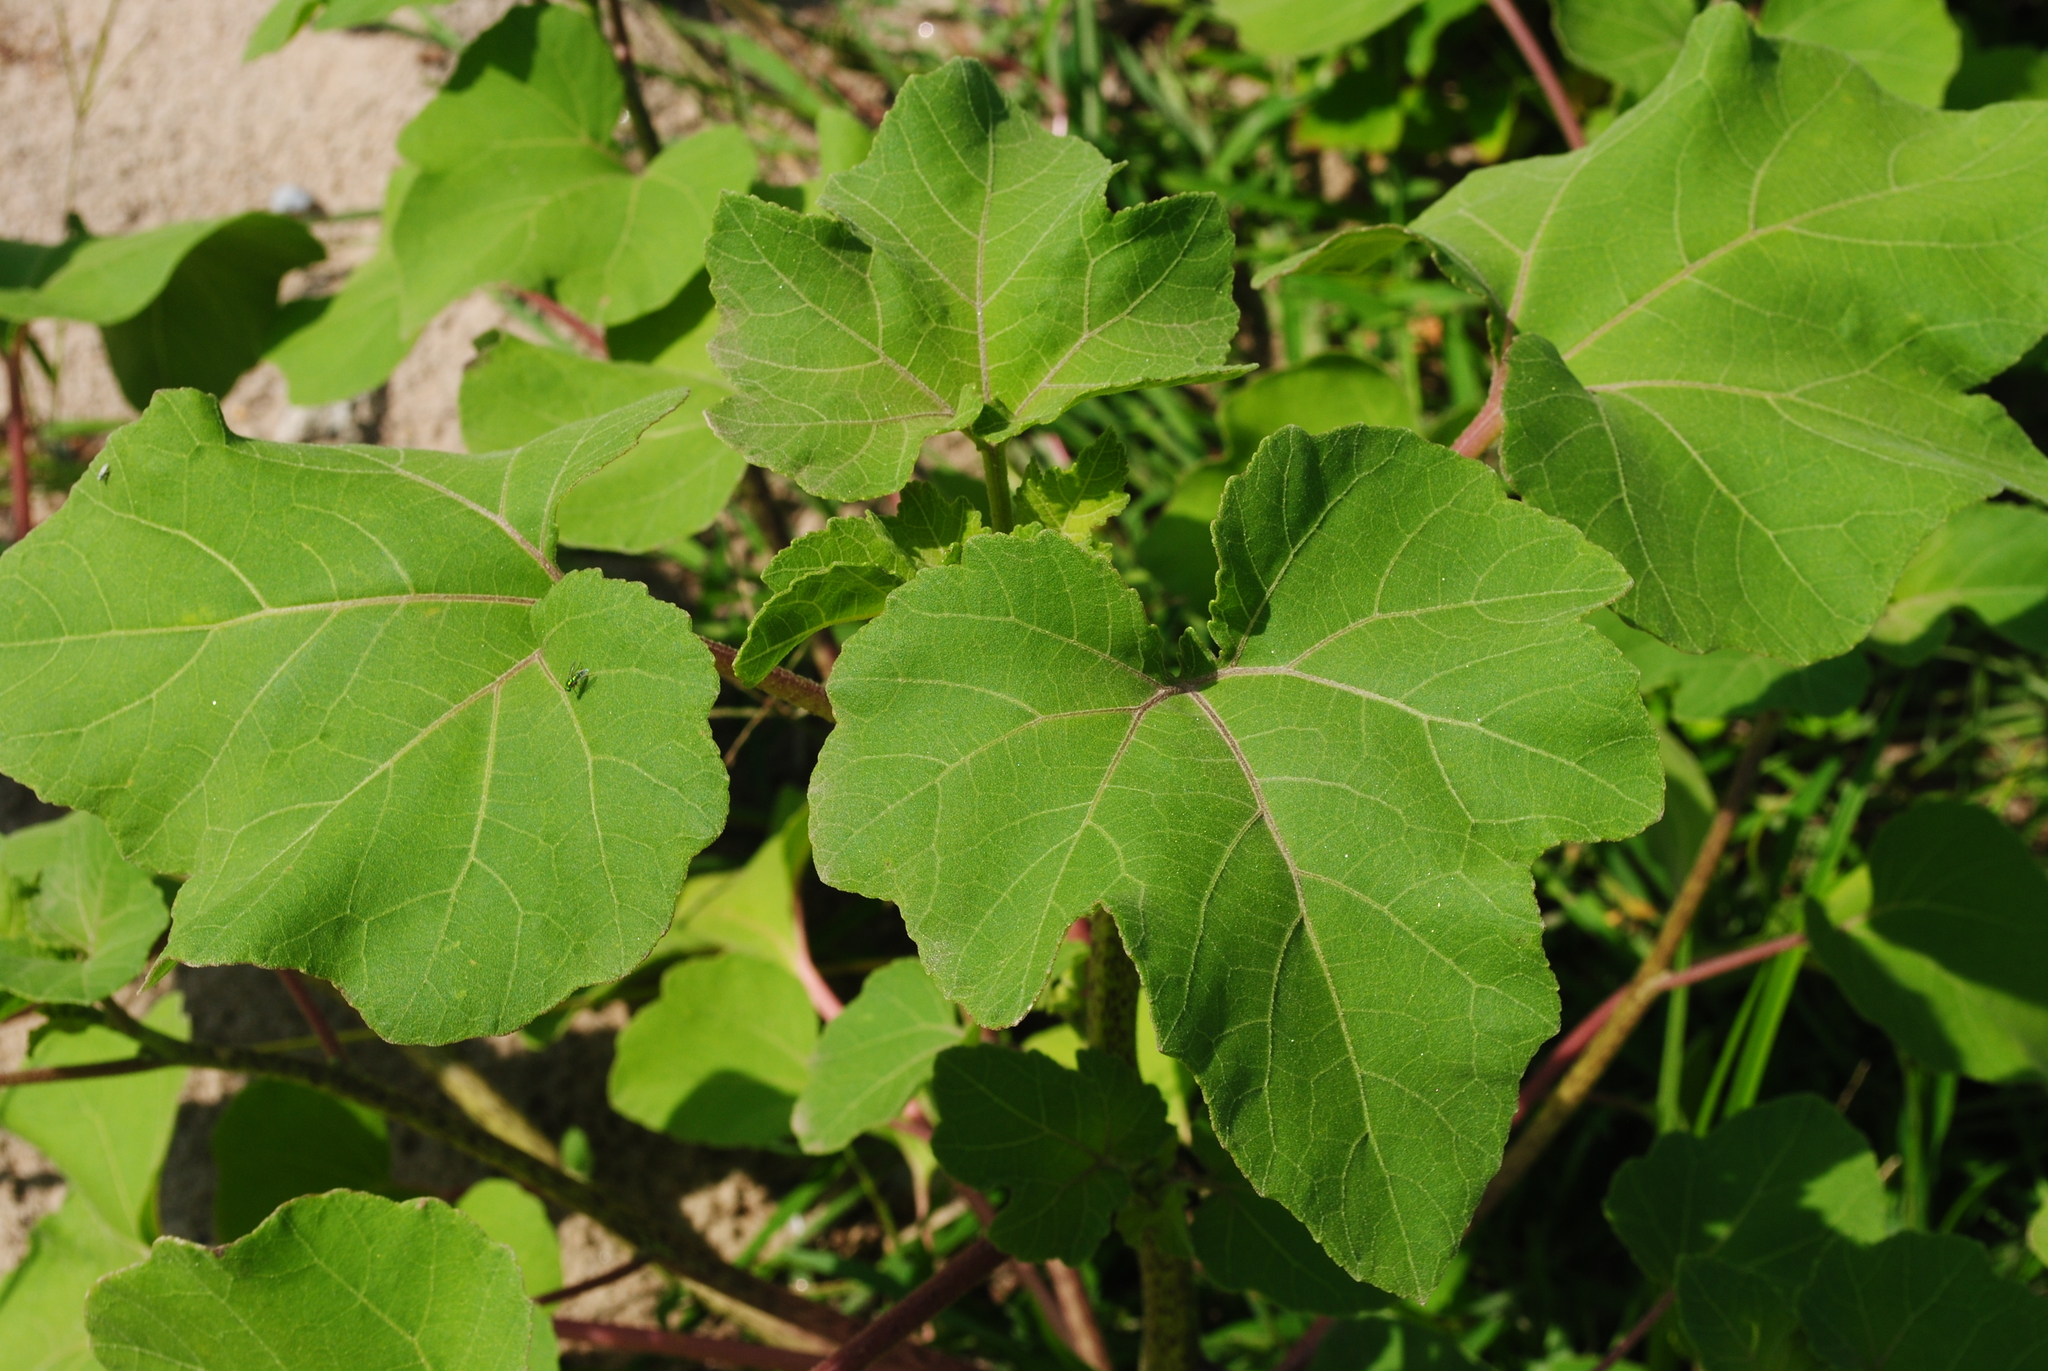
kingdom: Plantae
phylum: Tracheophyta
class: Magnoliopsida
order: Asterales
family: Asteraceae
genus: Xanthium
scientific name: Xanthium strumarium
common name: Rough cocklebur
